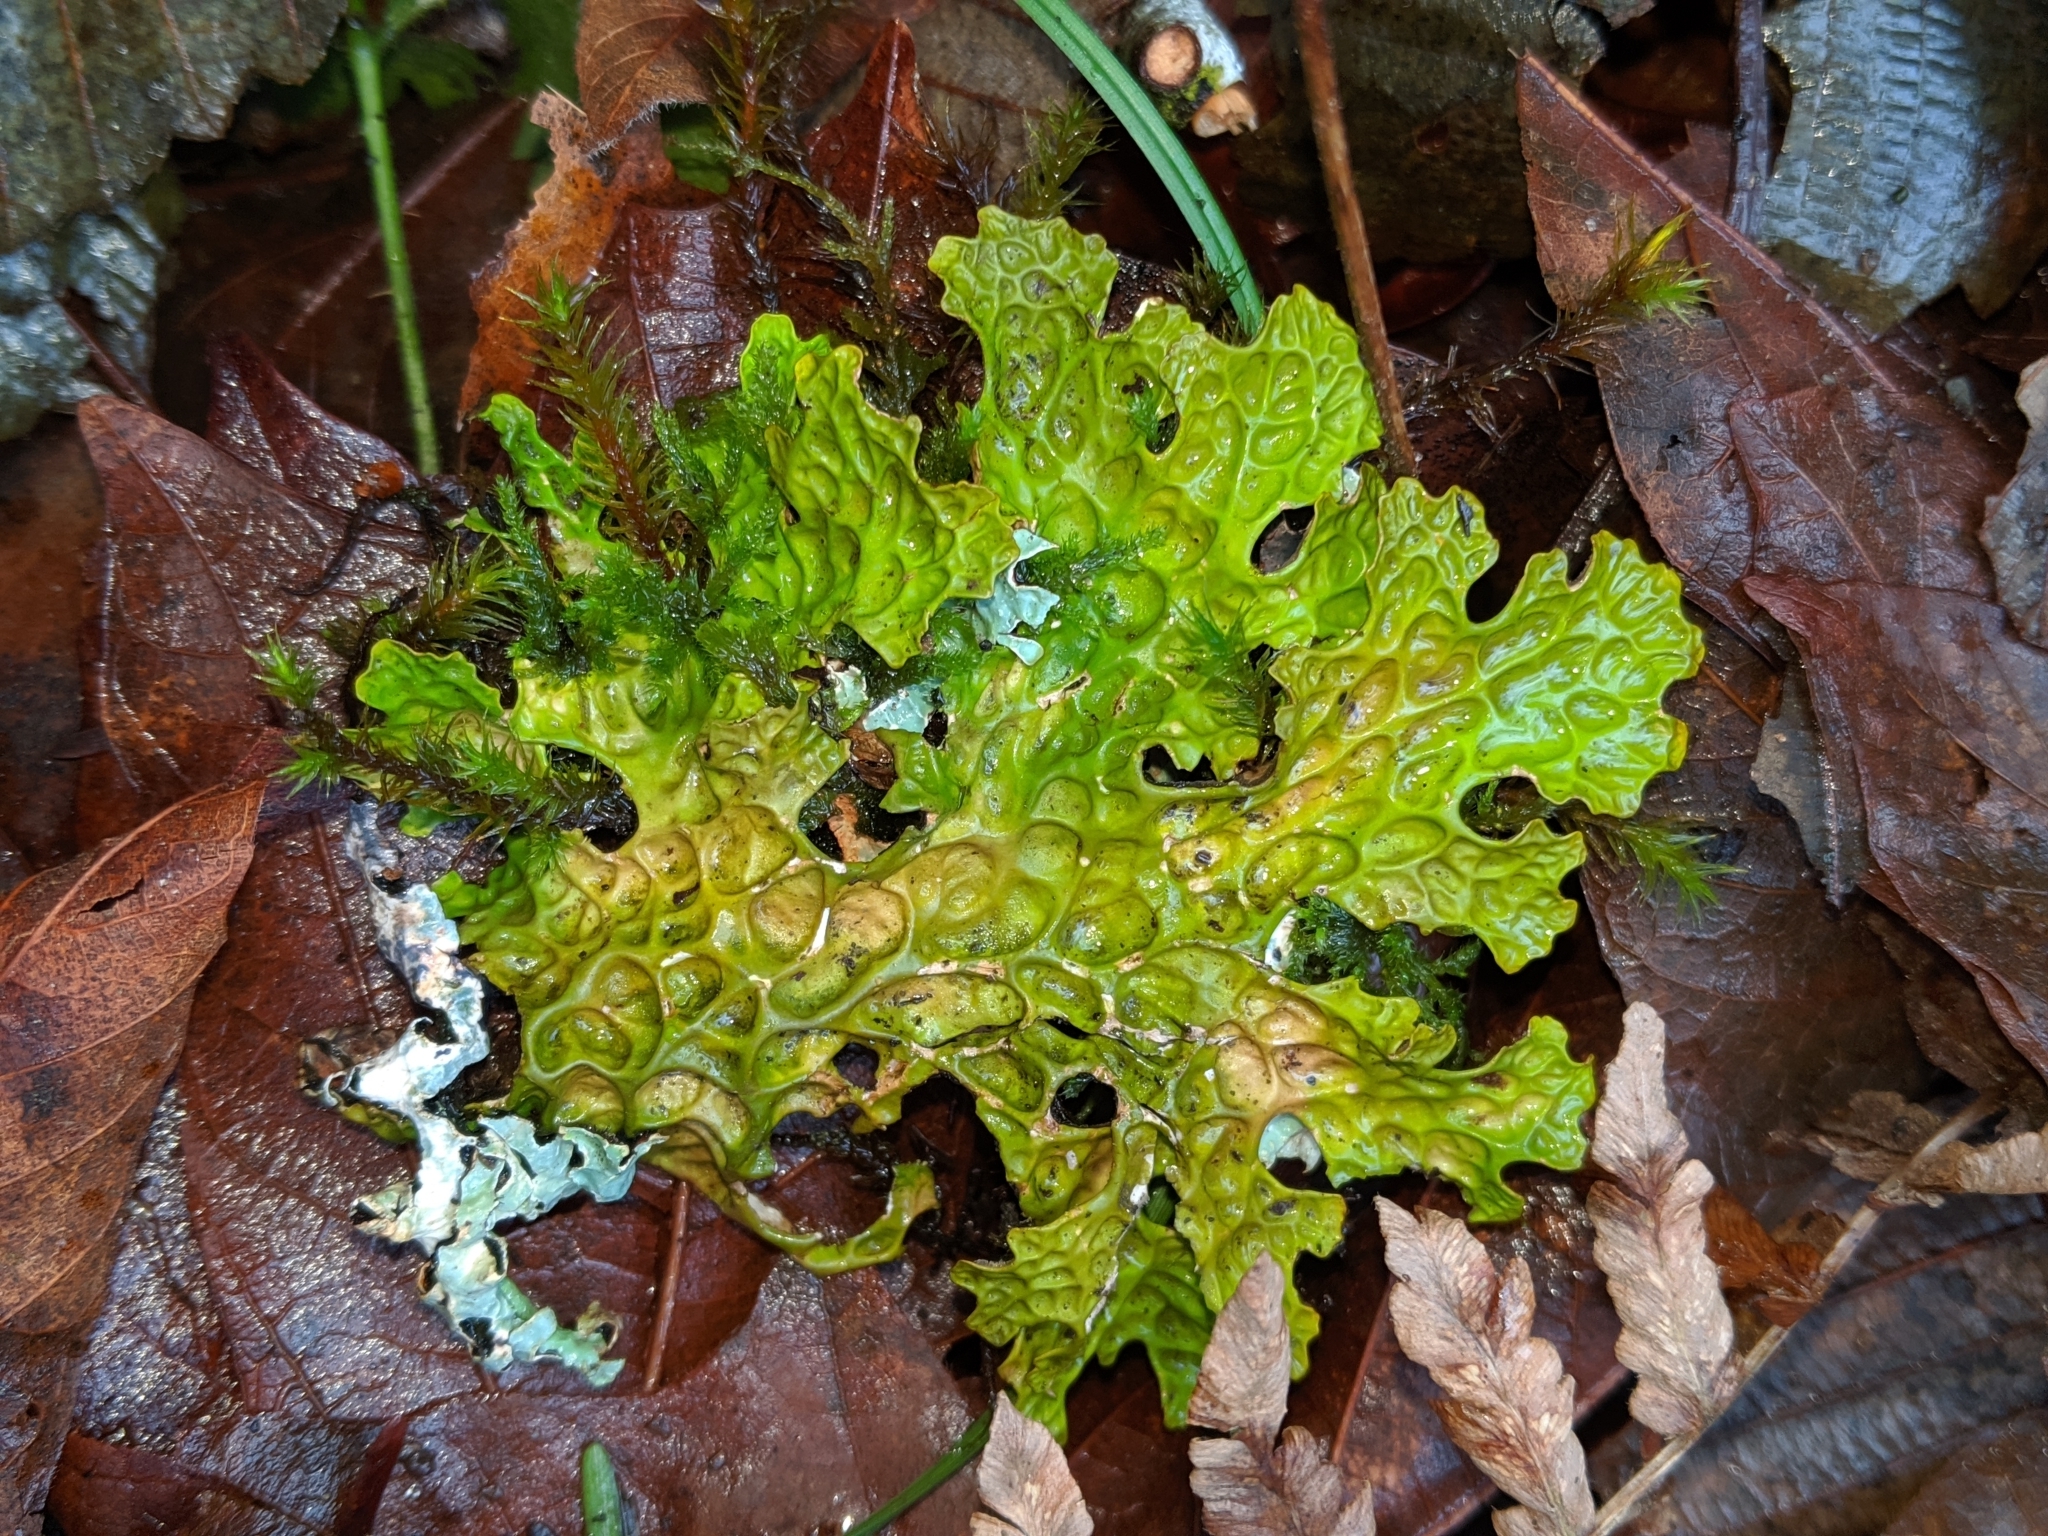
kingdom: Fungi
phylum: Ascomycota
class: Lecanoromycetes
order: Peltigerales
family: Lobariaceae
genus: Lobaria
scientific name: Lobaria pulmonaria
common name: Lungwort
